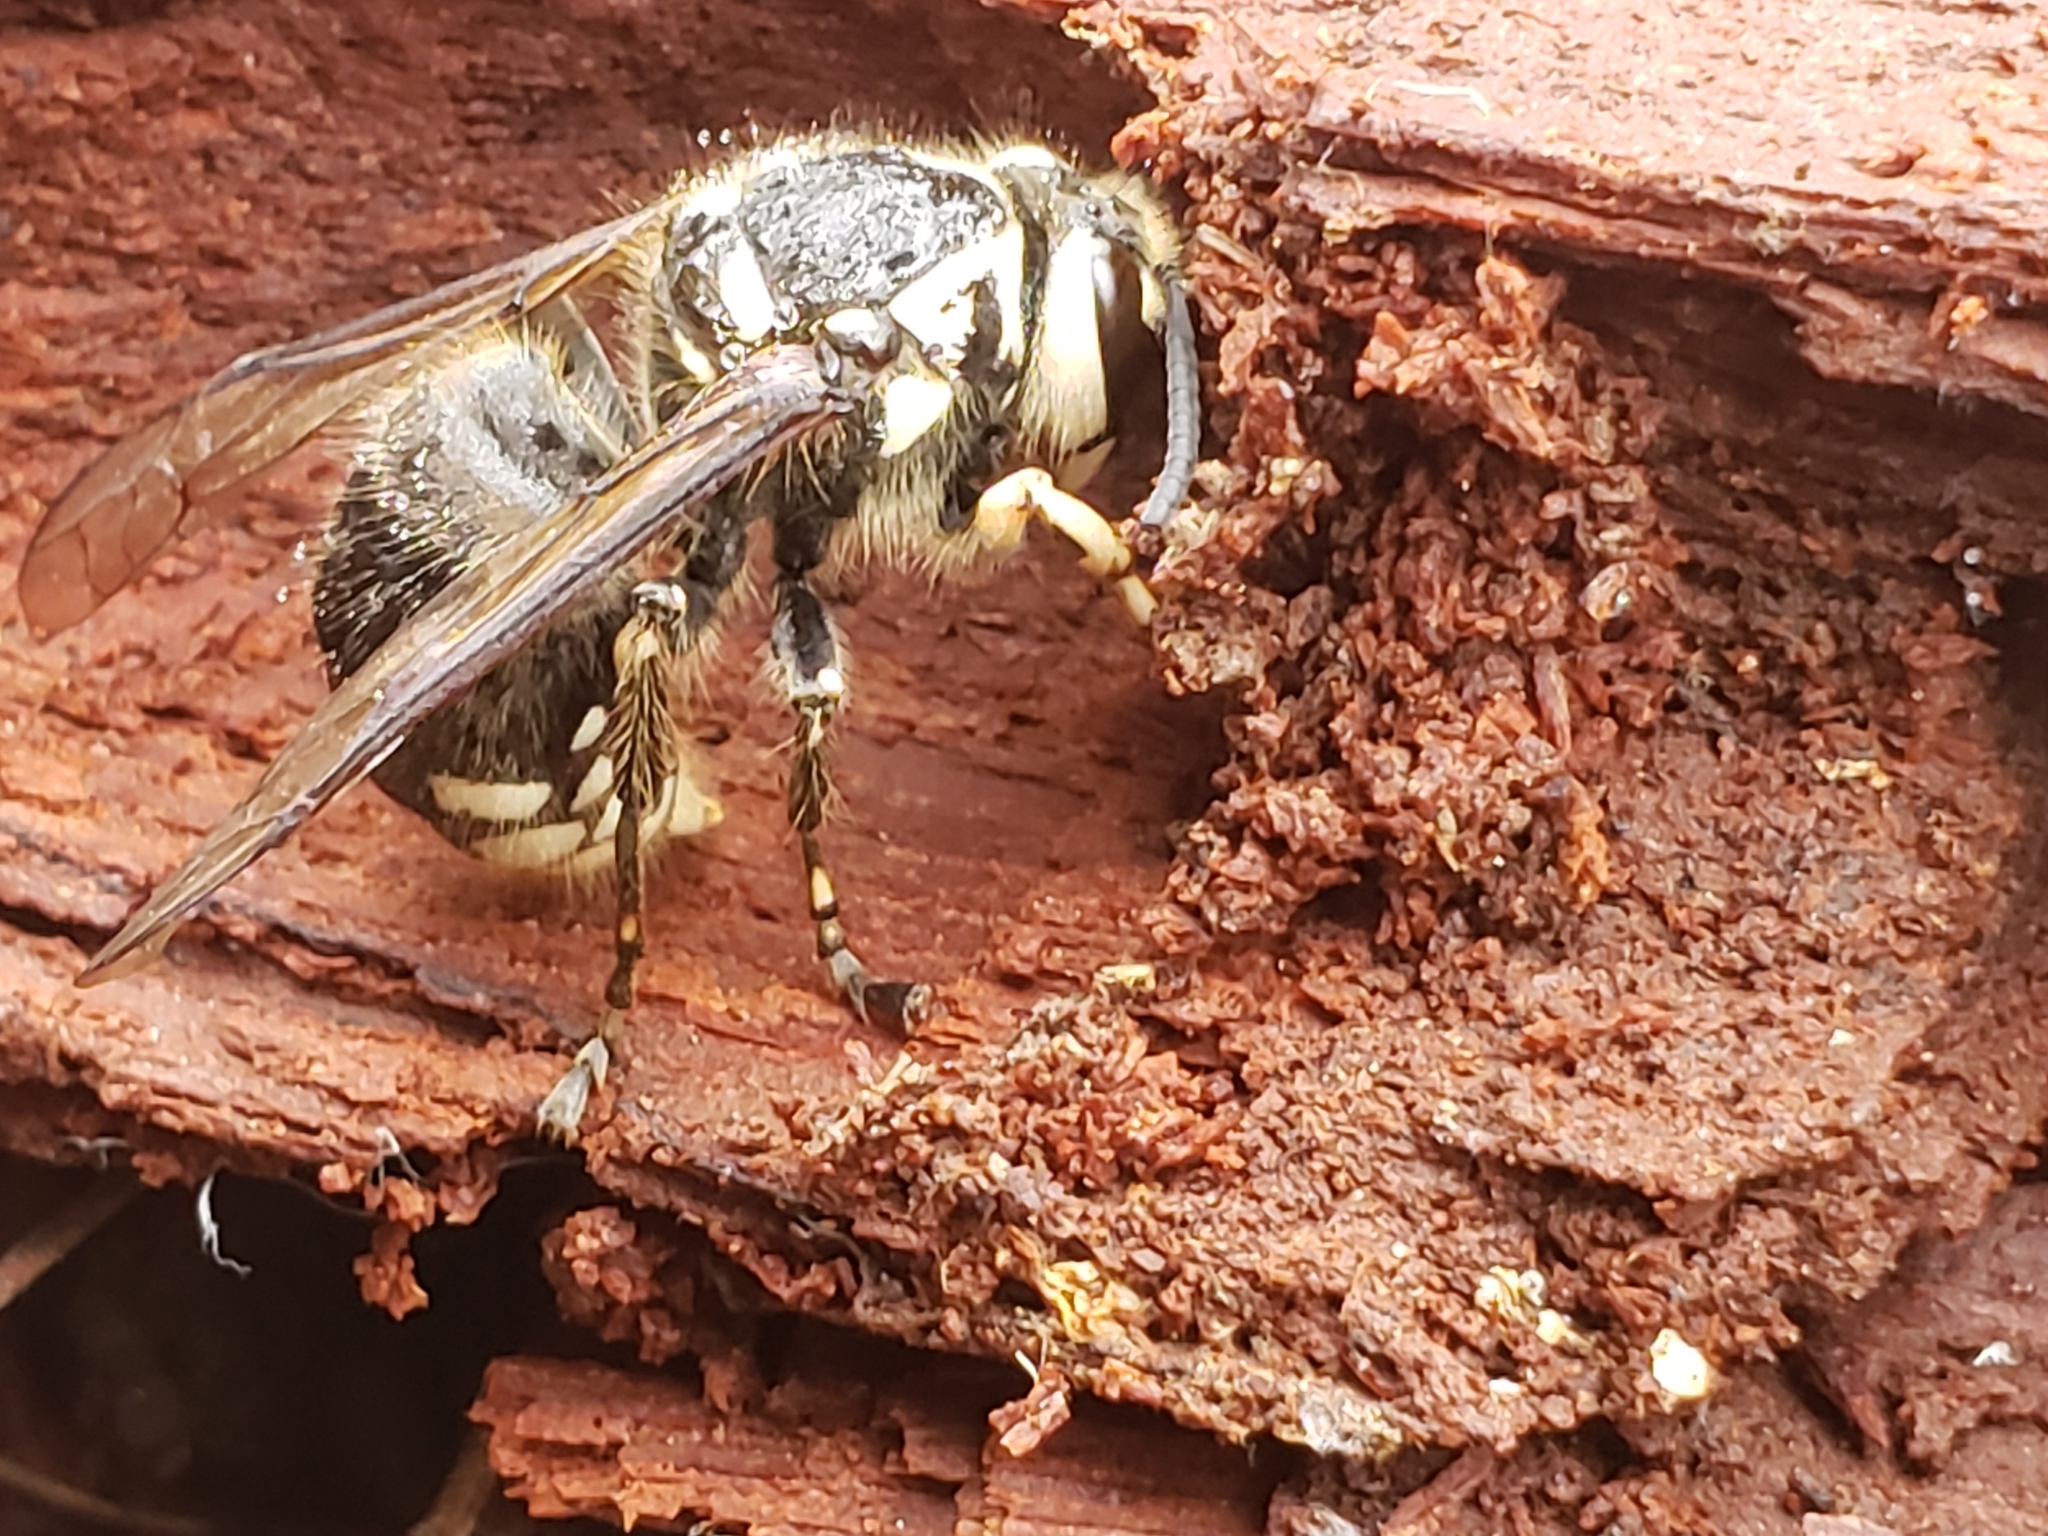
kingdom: Animalia
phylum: Arthropoda
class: Insecta
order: Hymenoptera
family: Vespidae
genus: Dolichovespula
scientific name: Dolichovespula maculata
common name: Bald-faced hornet
